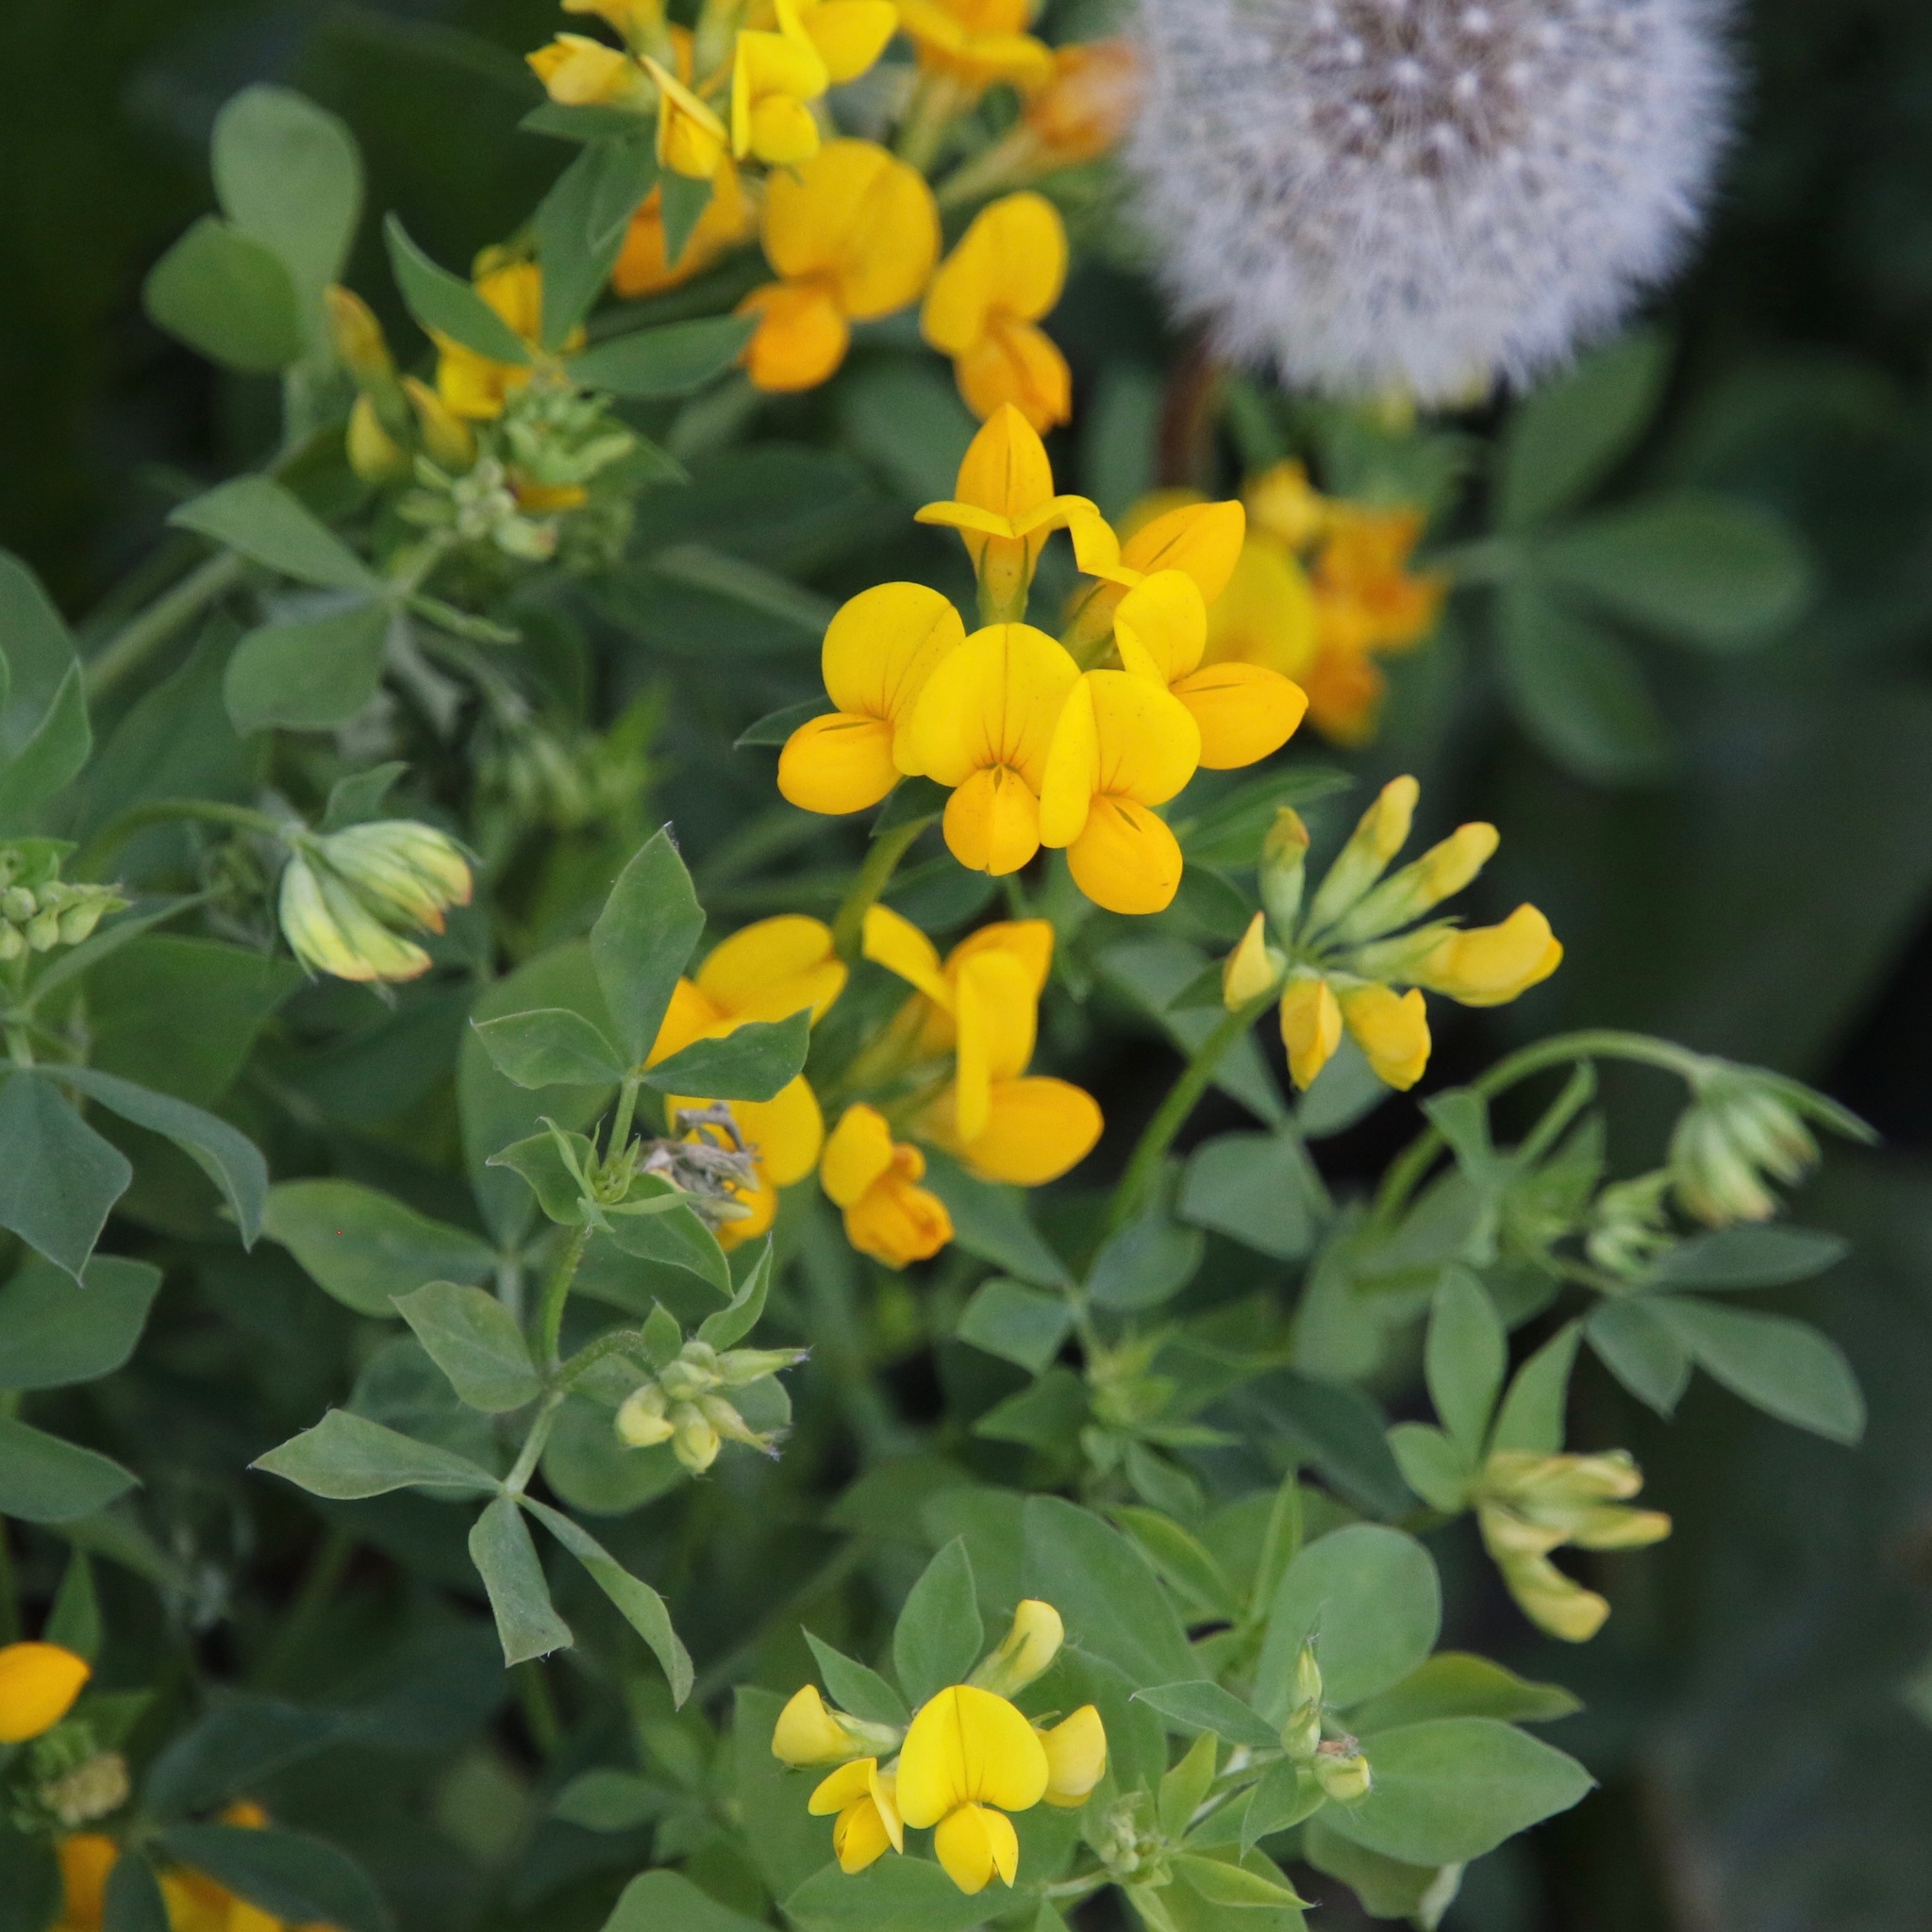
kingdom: Plantae
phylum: Tracheophyta
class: Magnoliopsida
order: Fabales
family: Fabaceae
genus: Lotus
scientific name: Lotus corniculatus
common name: Common bird's-foot-trefoil
